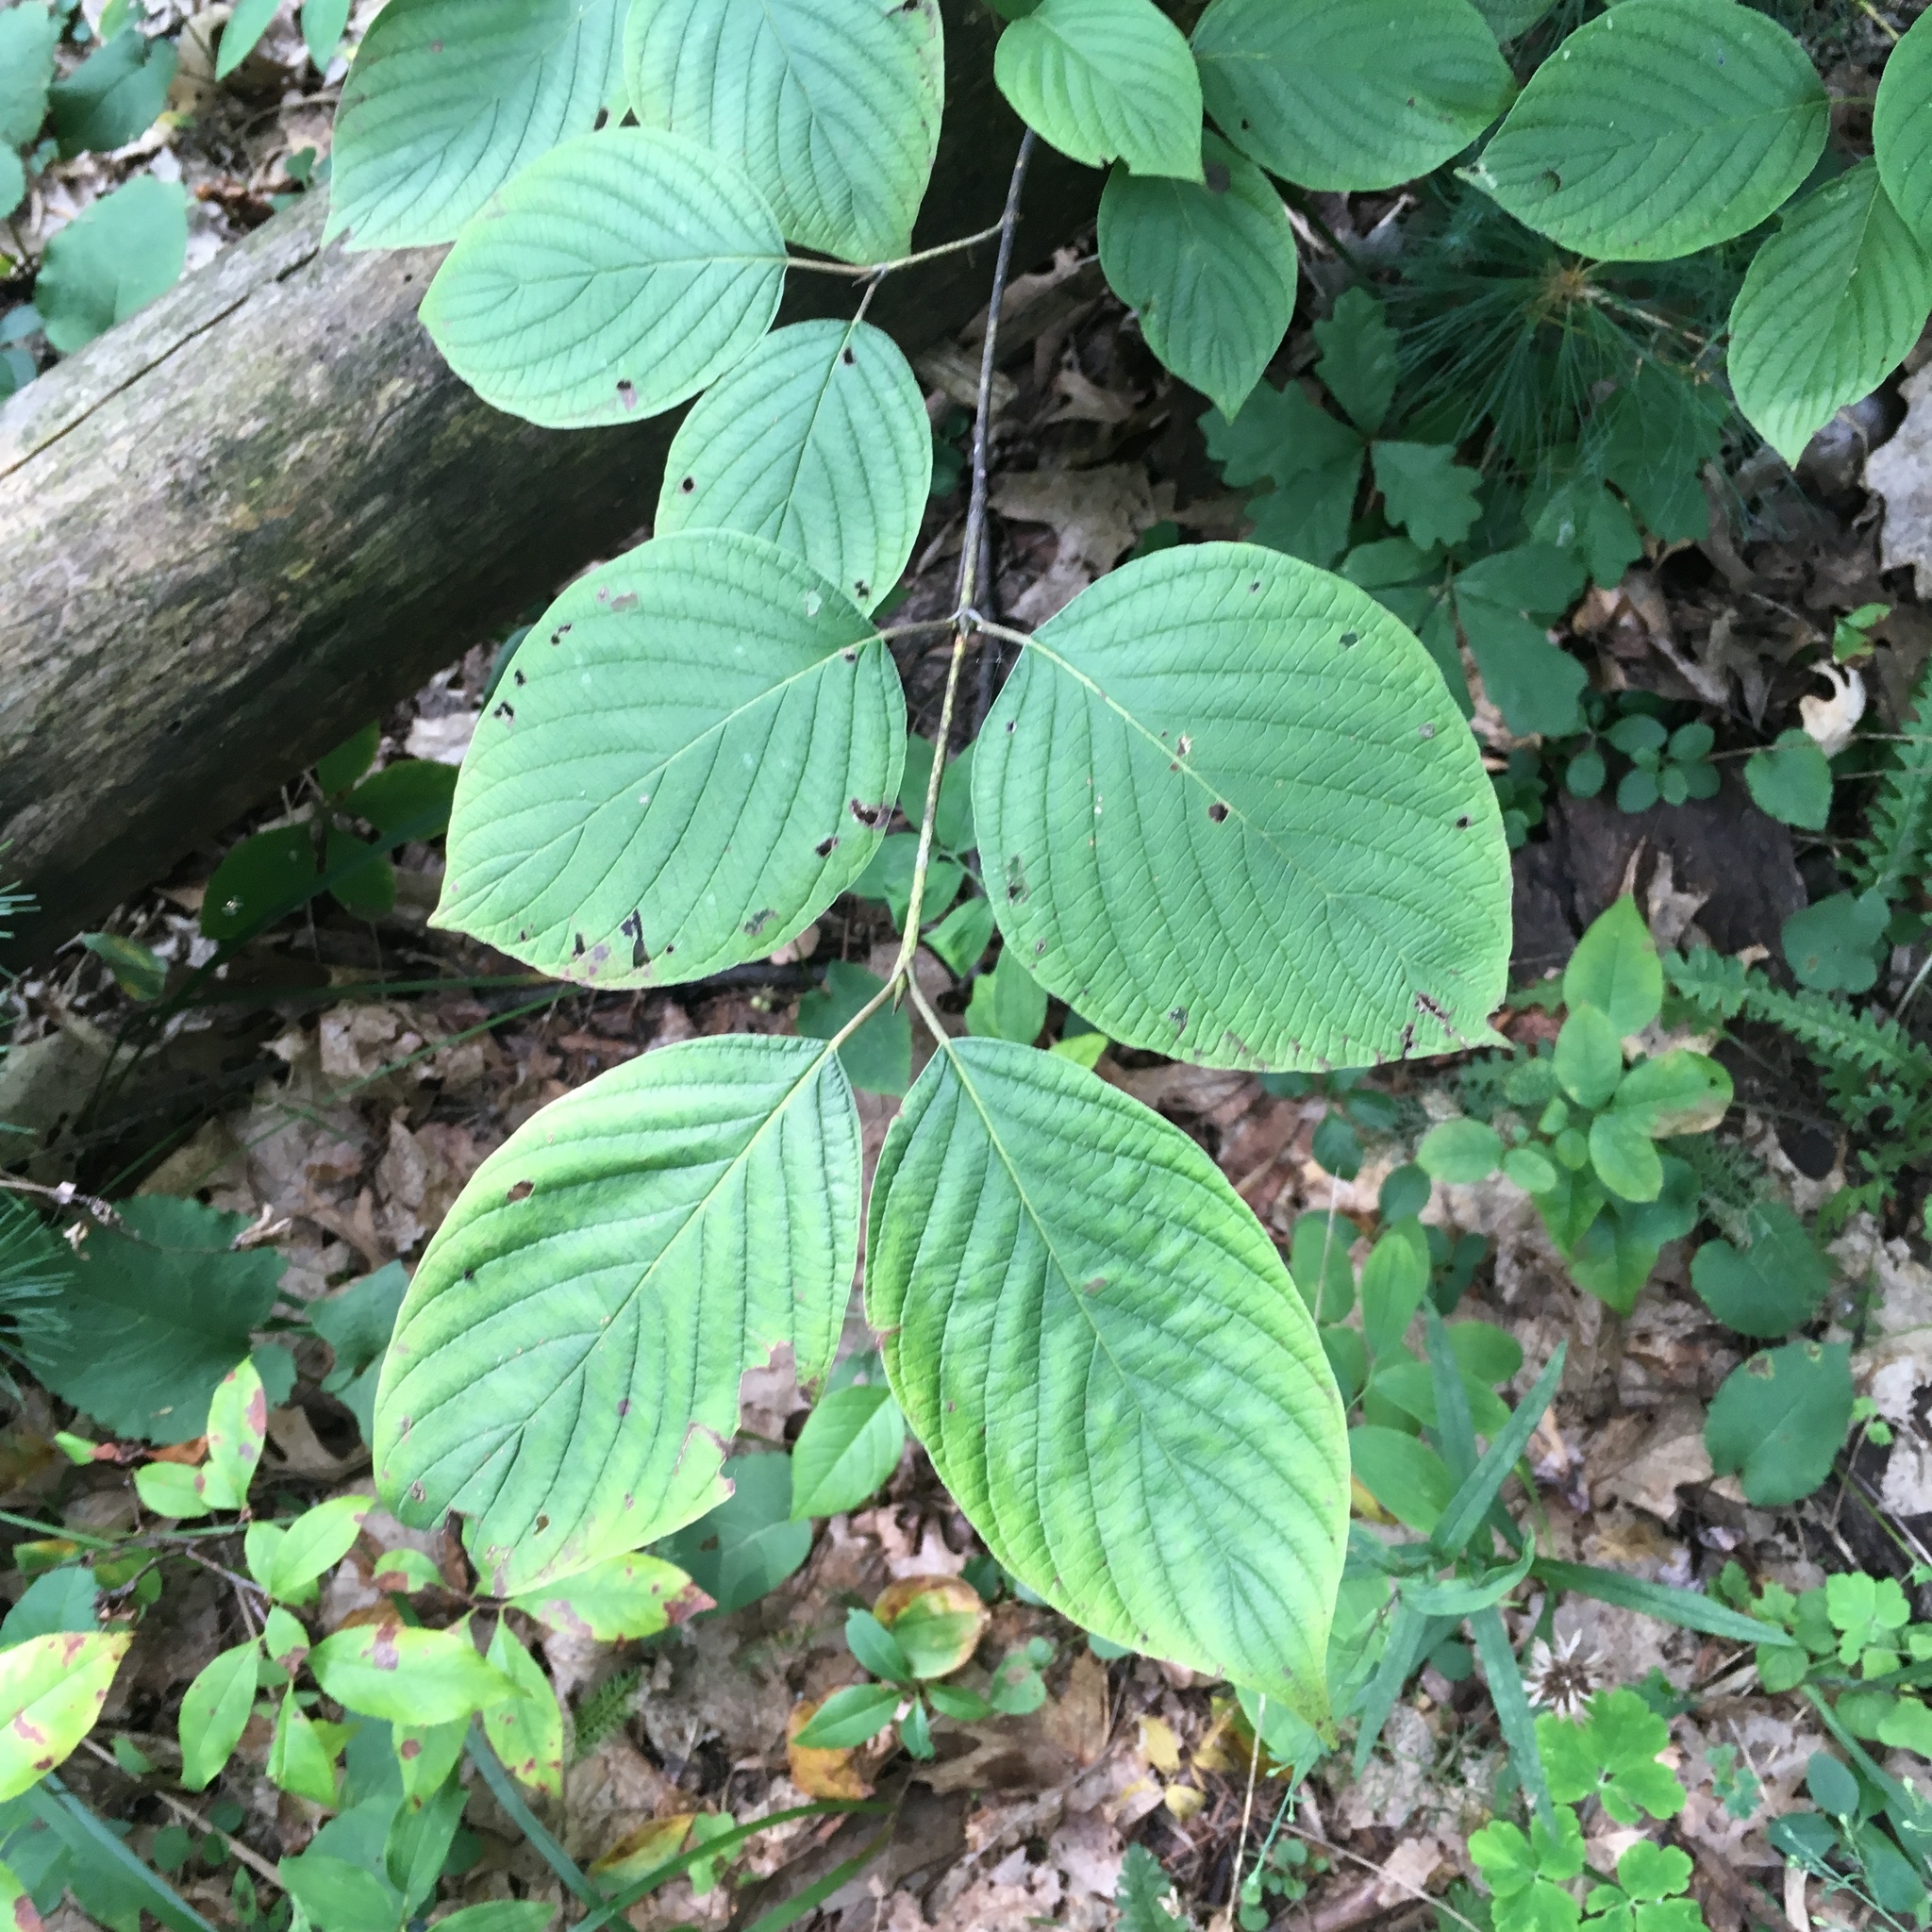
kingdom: Plantae
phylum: Tracheophyta
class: Magnoliopsida
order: Cornales
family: Cornaceae
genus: Cornus
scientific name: Cornus rugosa
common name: Round-leaf dogwood
